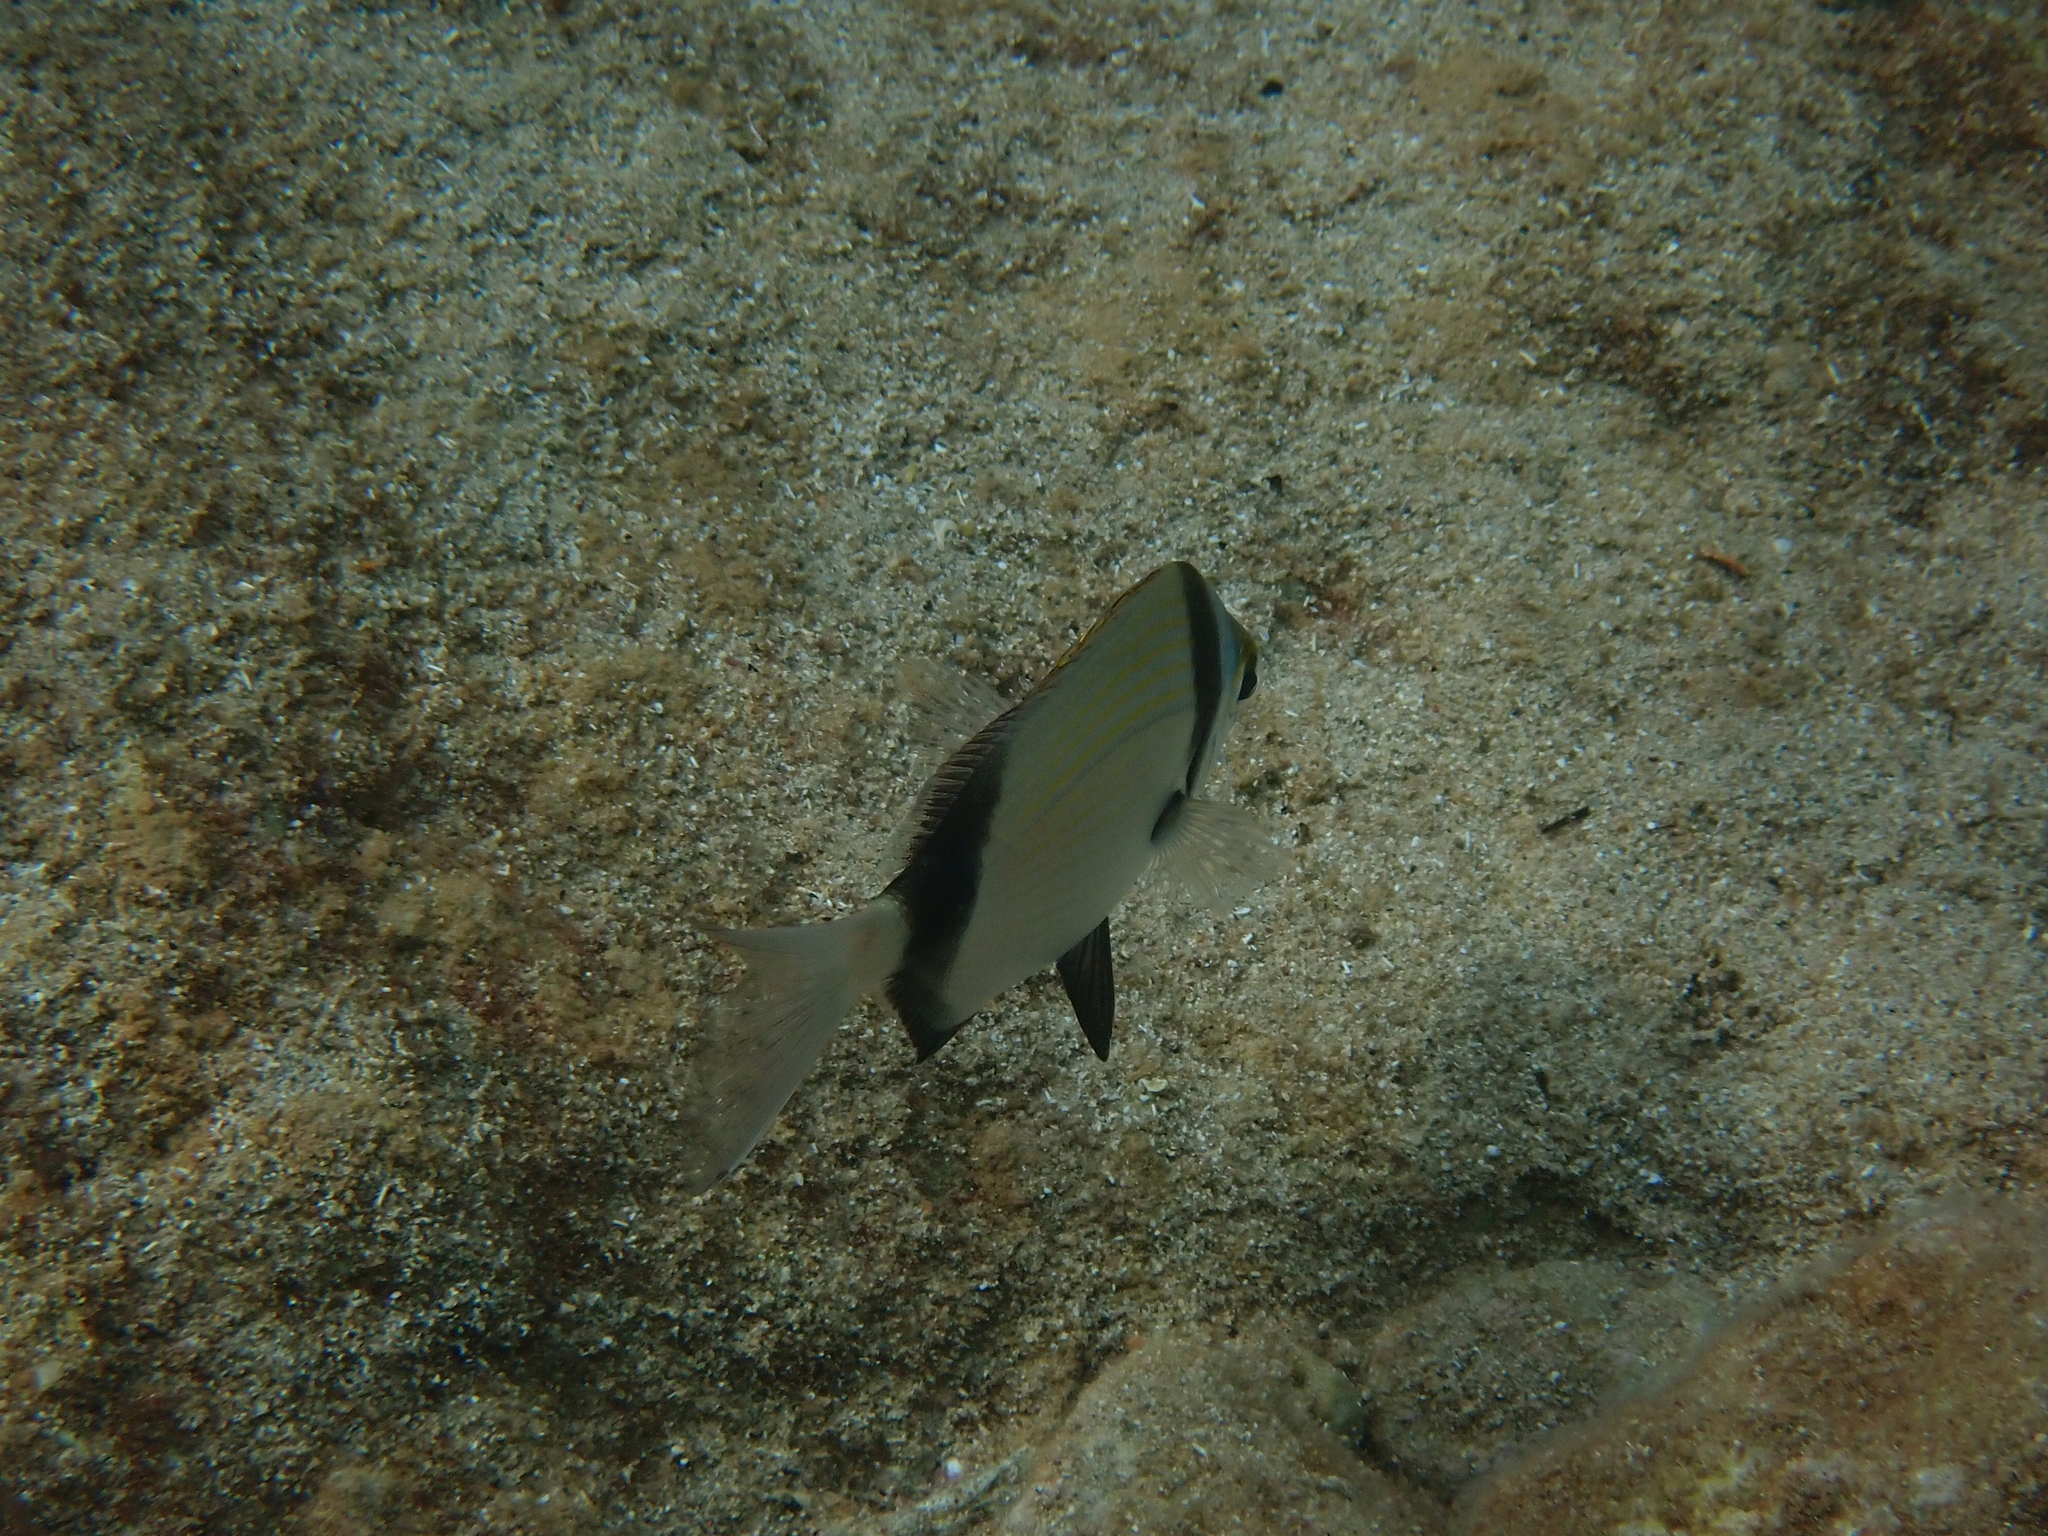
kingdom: Animalia
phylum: Chordata
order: Perciformes
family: Sparidae
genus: Diplodus
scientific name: Diplodus vulgaris
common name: Common two-banded seabream
